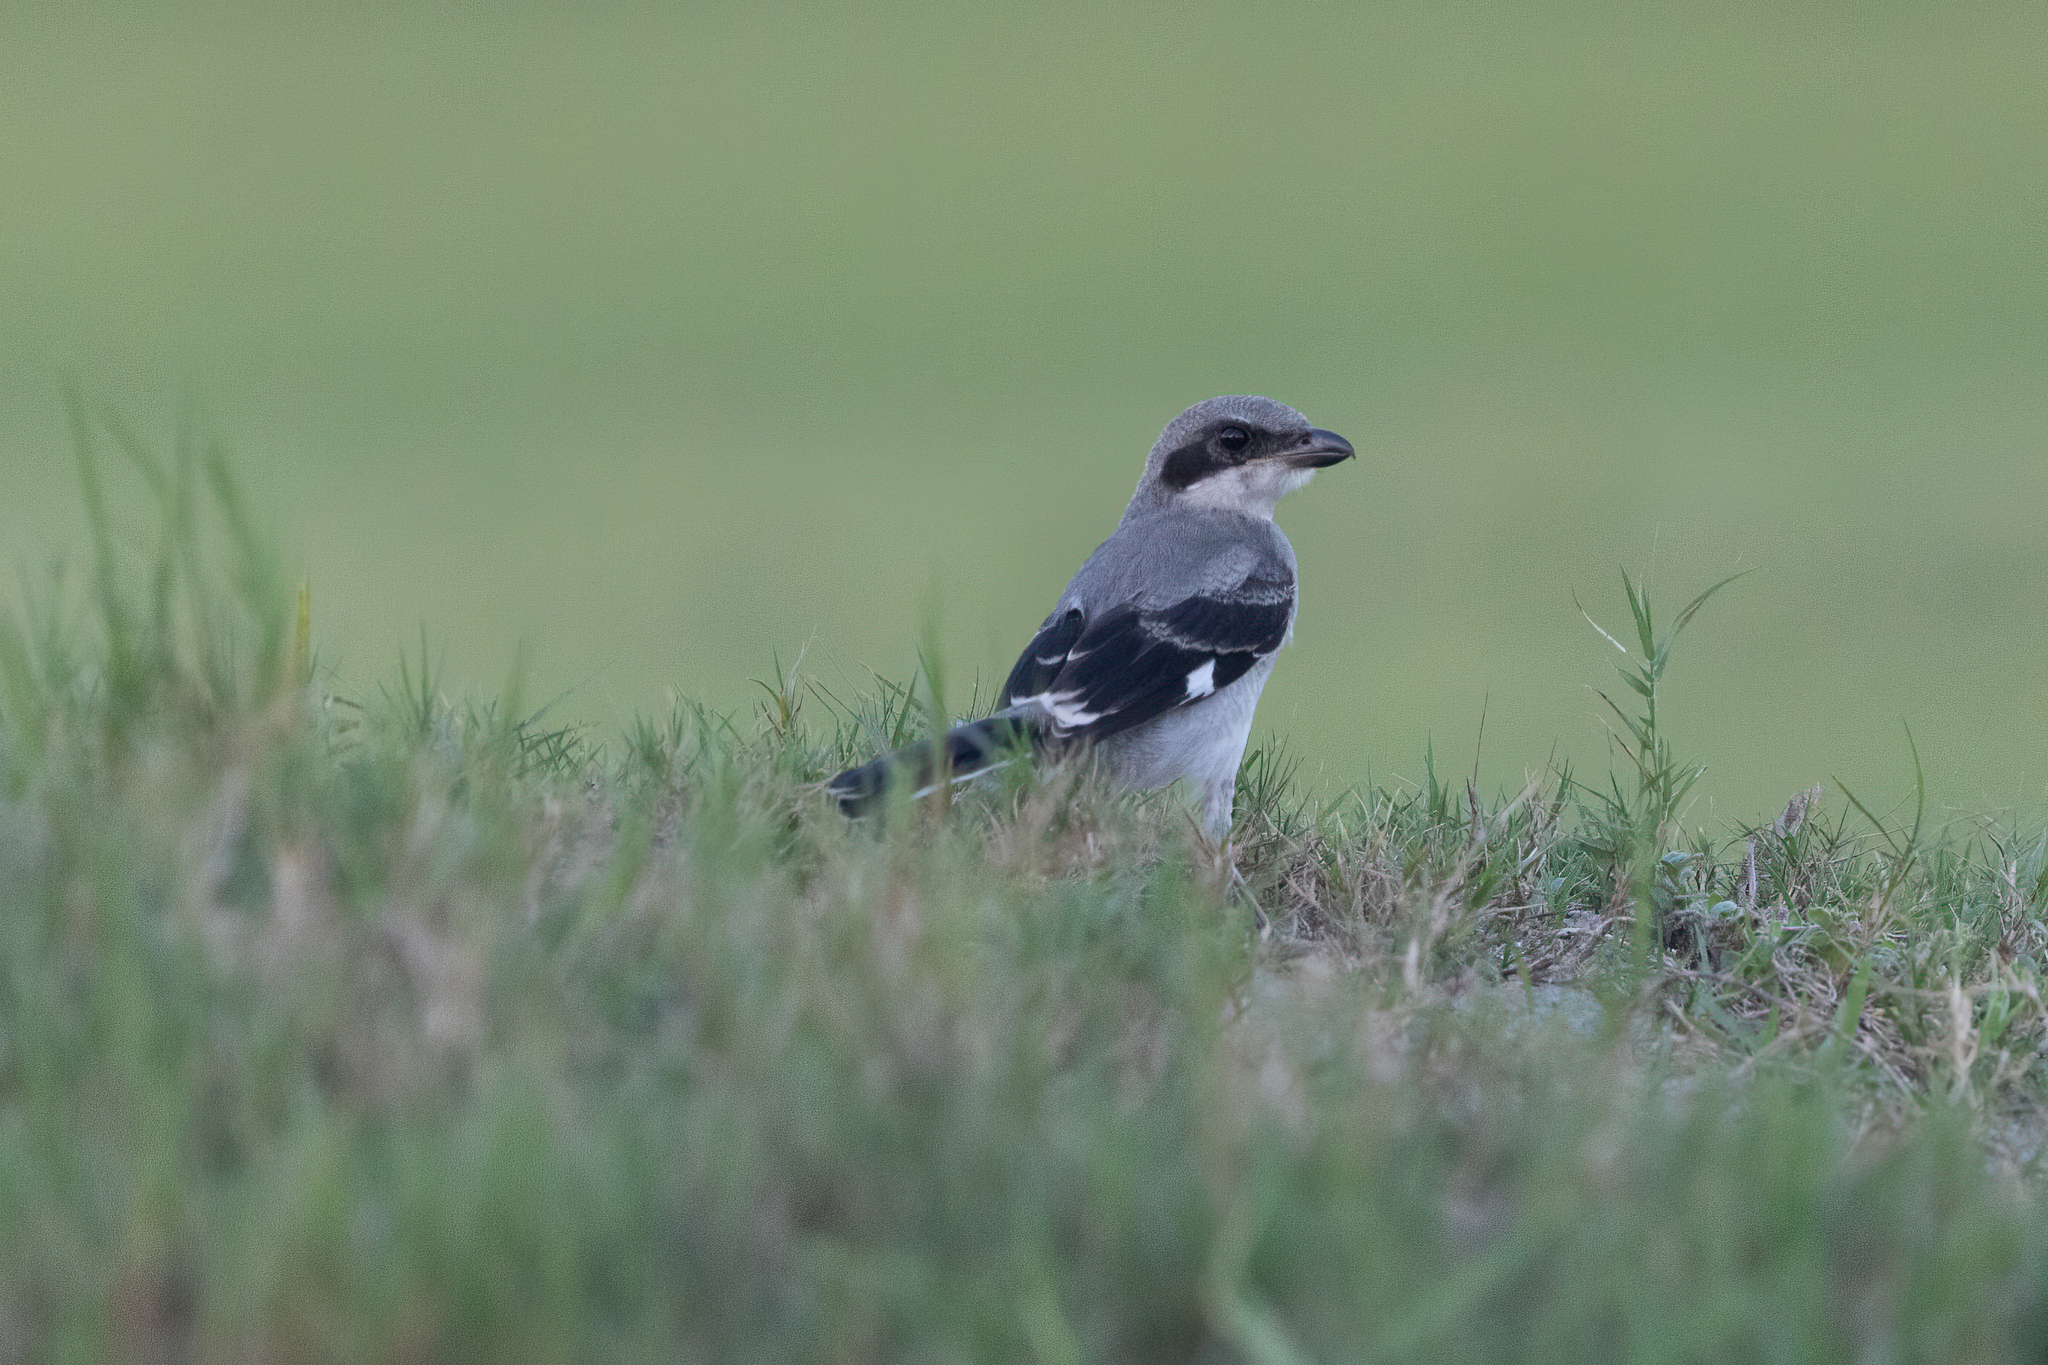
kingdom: Animalia
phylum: Chordata
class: Aves
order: Passeriformes
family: Laniidae
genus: Lanius
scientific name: Lanius ludovicianus
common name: Loggerhead shrike
